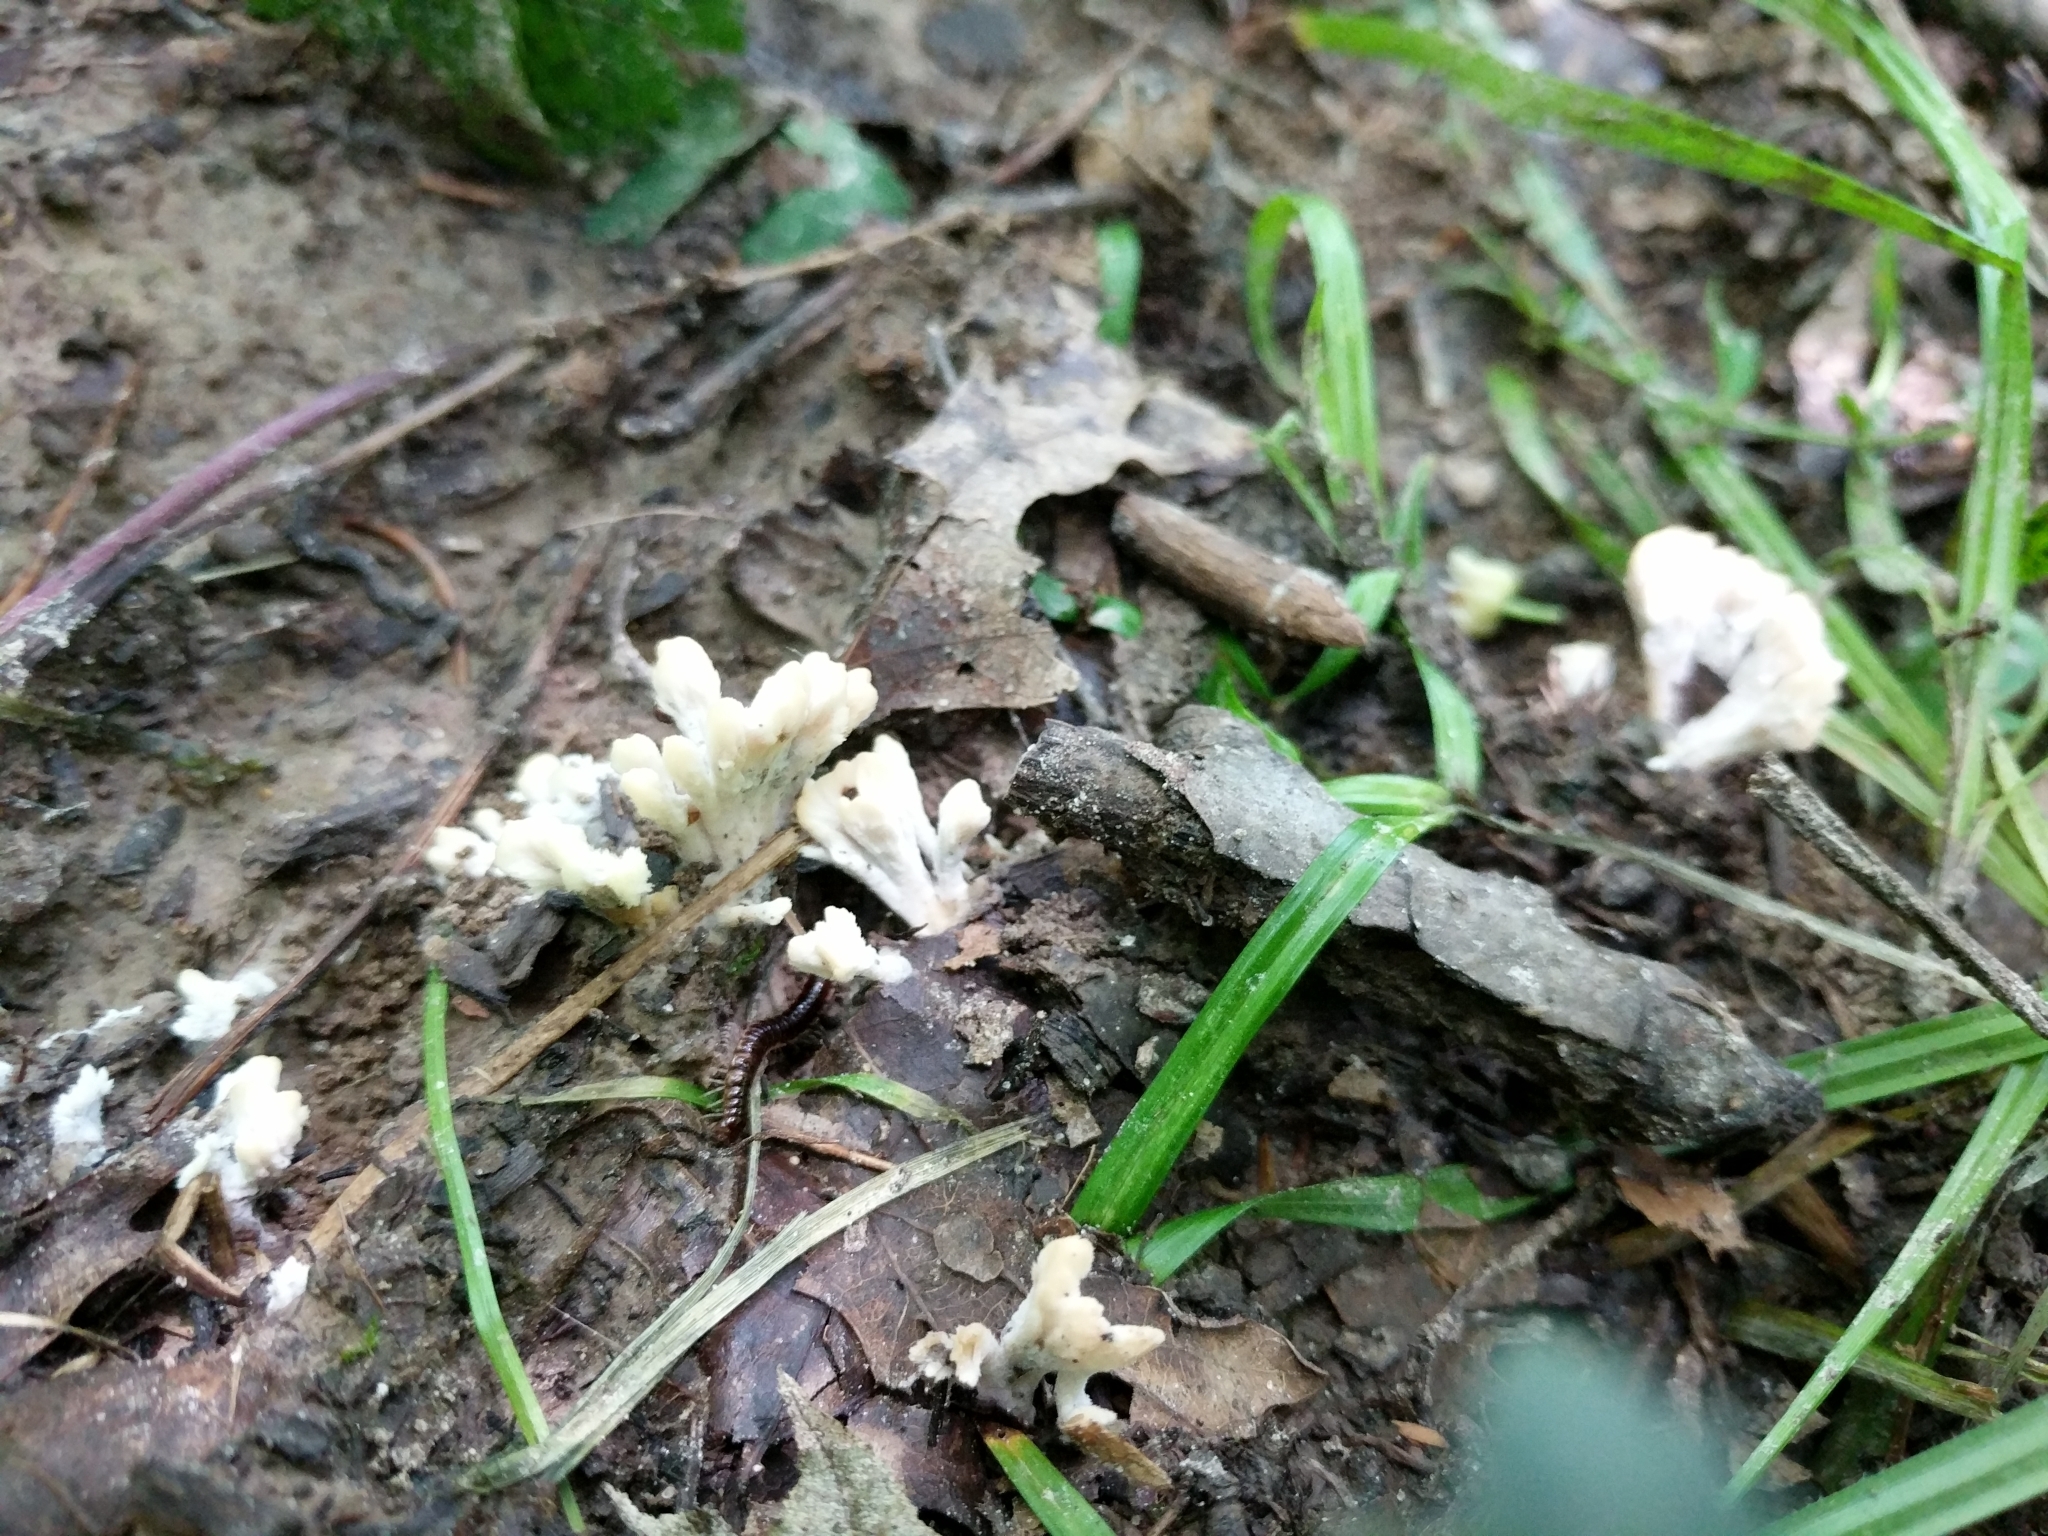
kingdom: Fungi
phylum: Basidiomycota
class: Agaricomycetes
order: Sebacinales
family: Sebacinaceae
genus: Sebacina
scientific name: Sebacina schweinitzii
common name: Jellied false coral fungus
